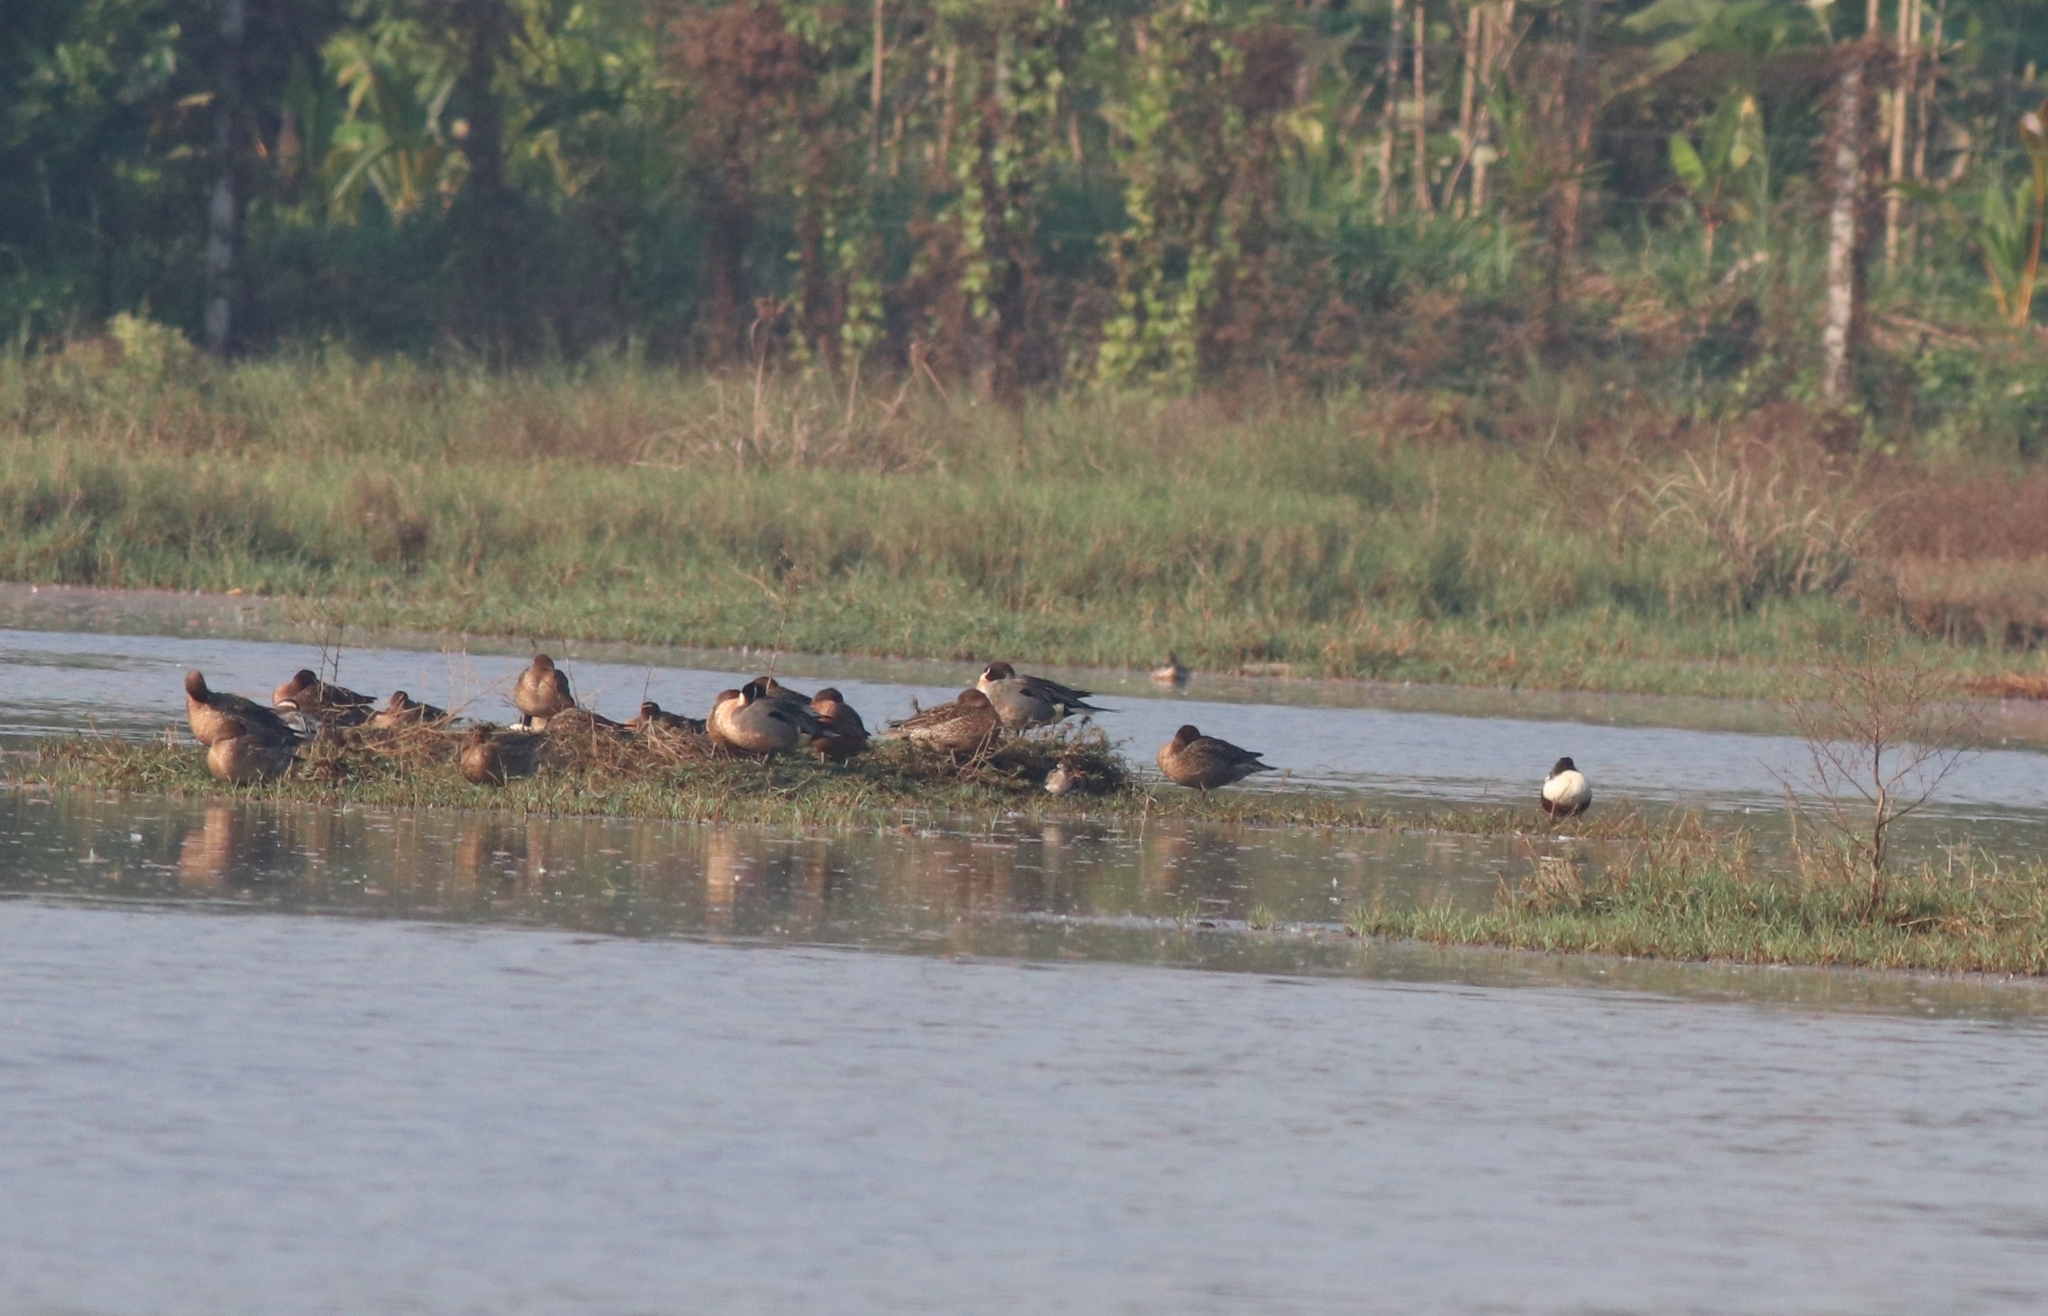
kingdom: Animalia
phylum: Chordata
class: Aves
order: Anseriformes
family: Anatidae
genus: Spatula
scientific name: Spatula clypeata
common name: Northern shoveler
